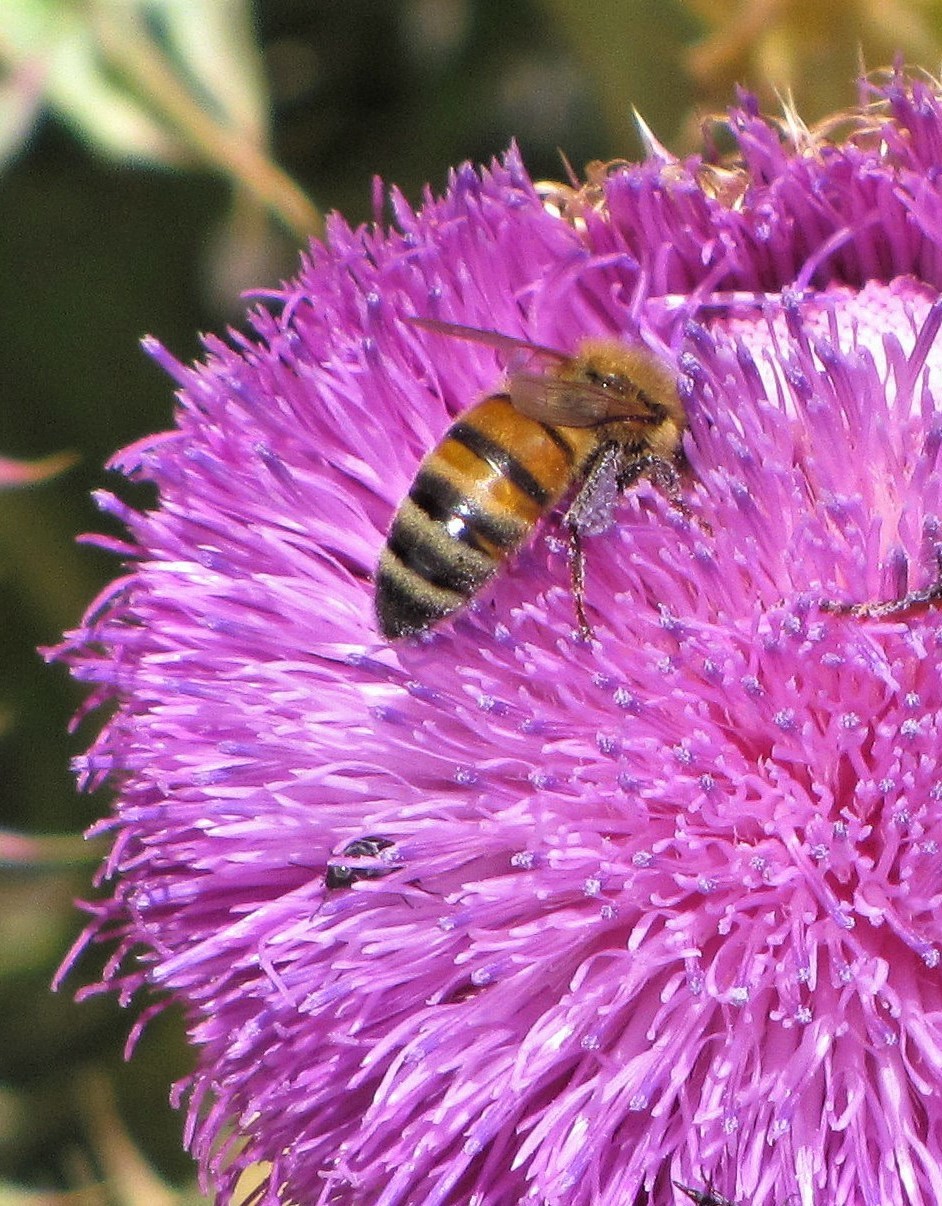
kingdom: Animalia
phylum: Arthropoda
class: Insecta
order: Hymenoptera
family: Apidae
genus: Apis
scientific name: Apis mellifera
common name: Honey bee
